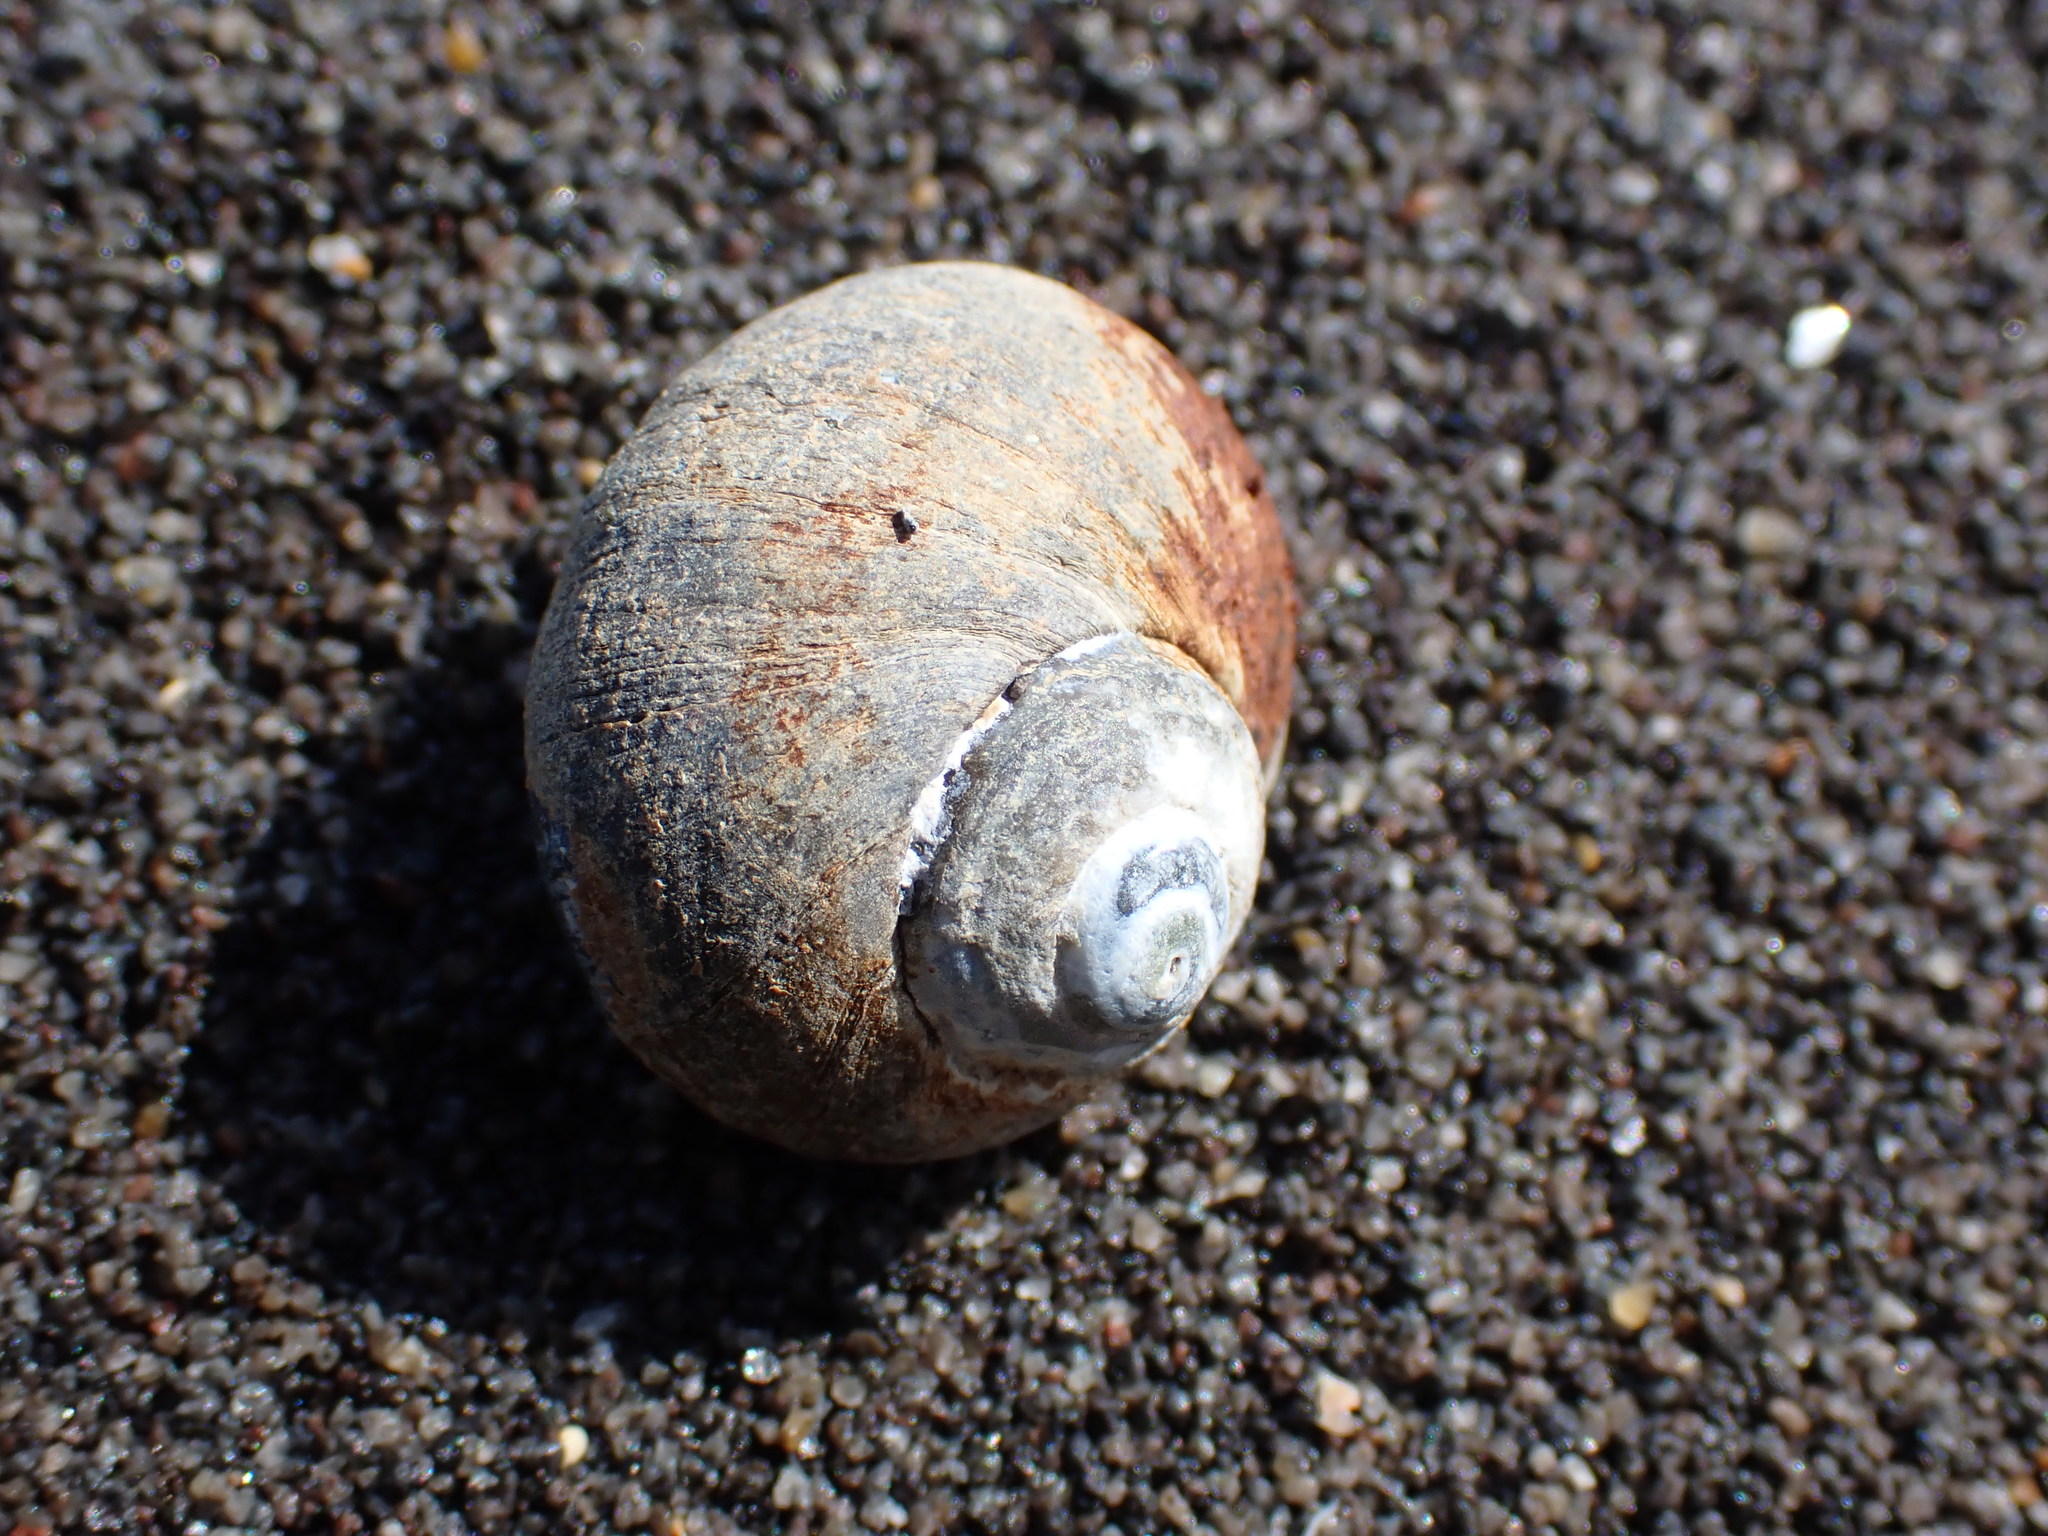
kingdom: Animalia
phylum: Mollusca
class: Gastropoda
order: Trochida
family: Turbinidae
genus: Lunella
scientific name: Lunella smaragda
